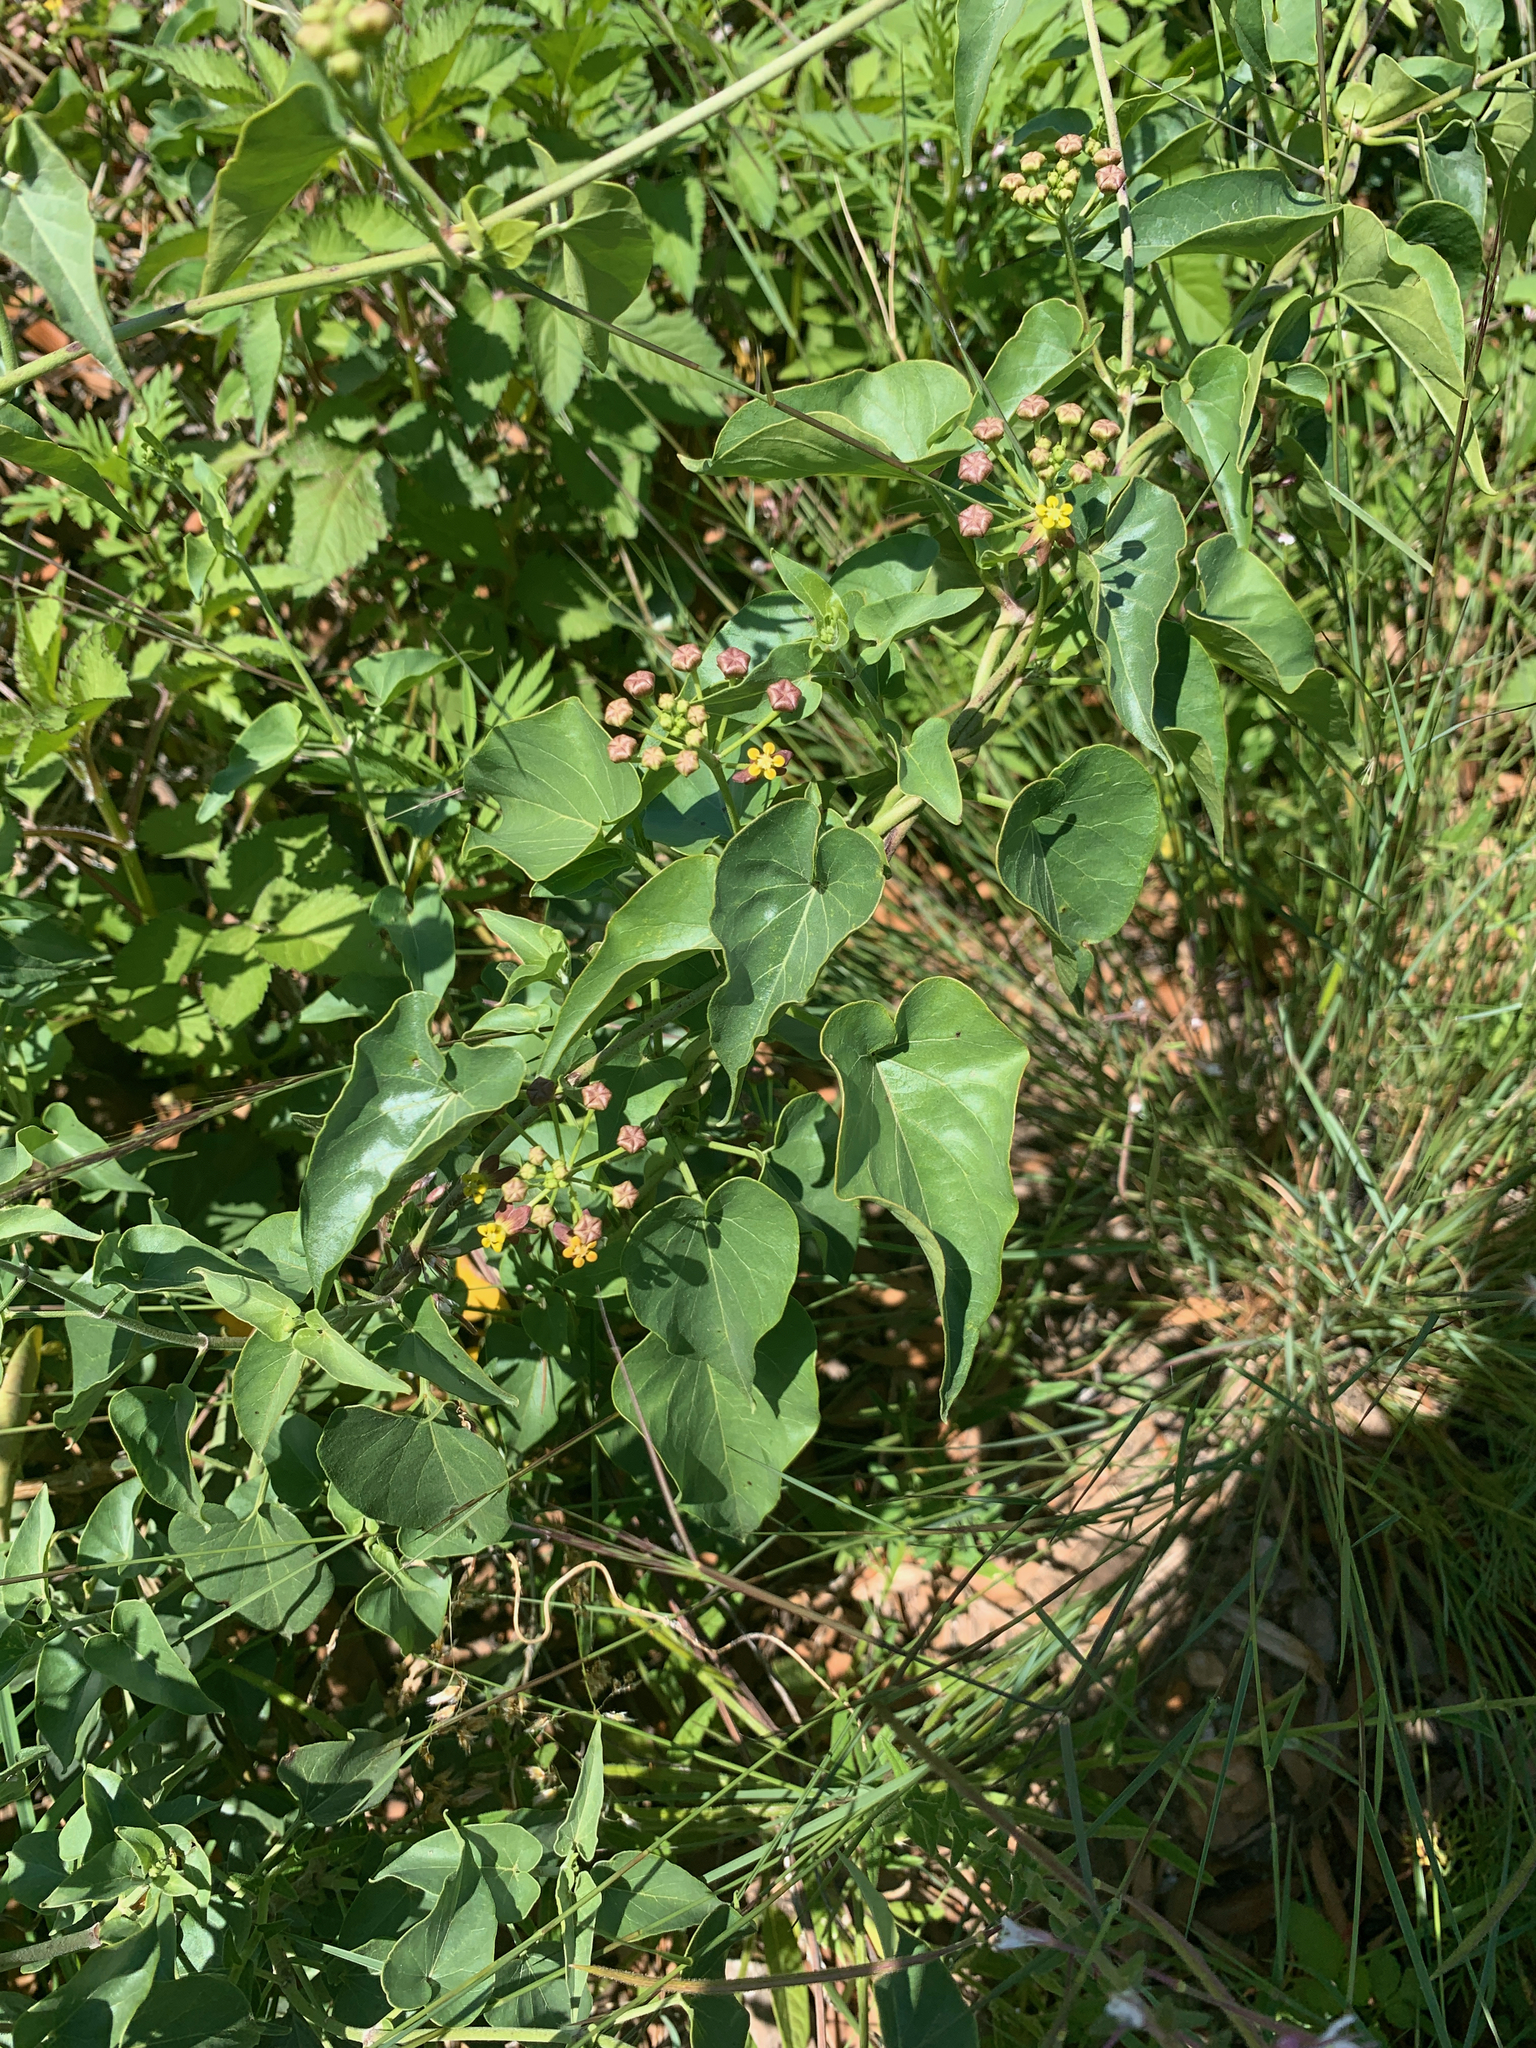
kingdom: Plantae
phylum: Tracheophyta
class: Magnoliopsida
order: Gentianales
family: Apocynaceae
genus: Cynanchum
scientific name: Cynanchum
